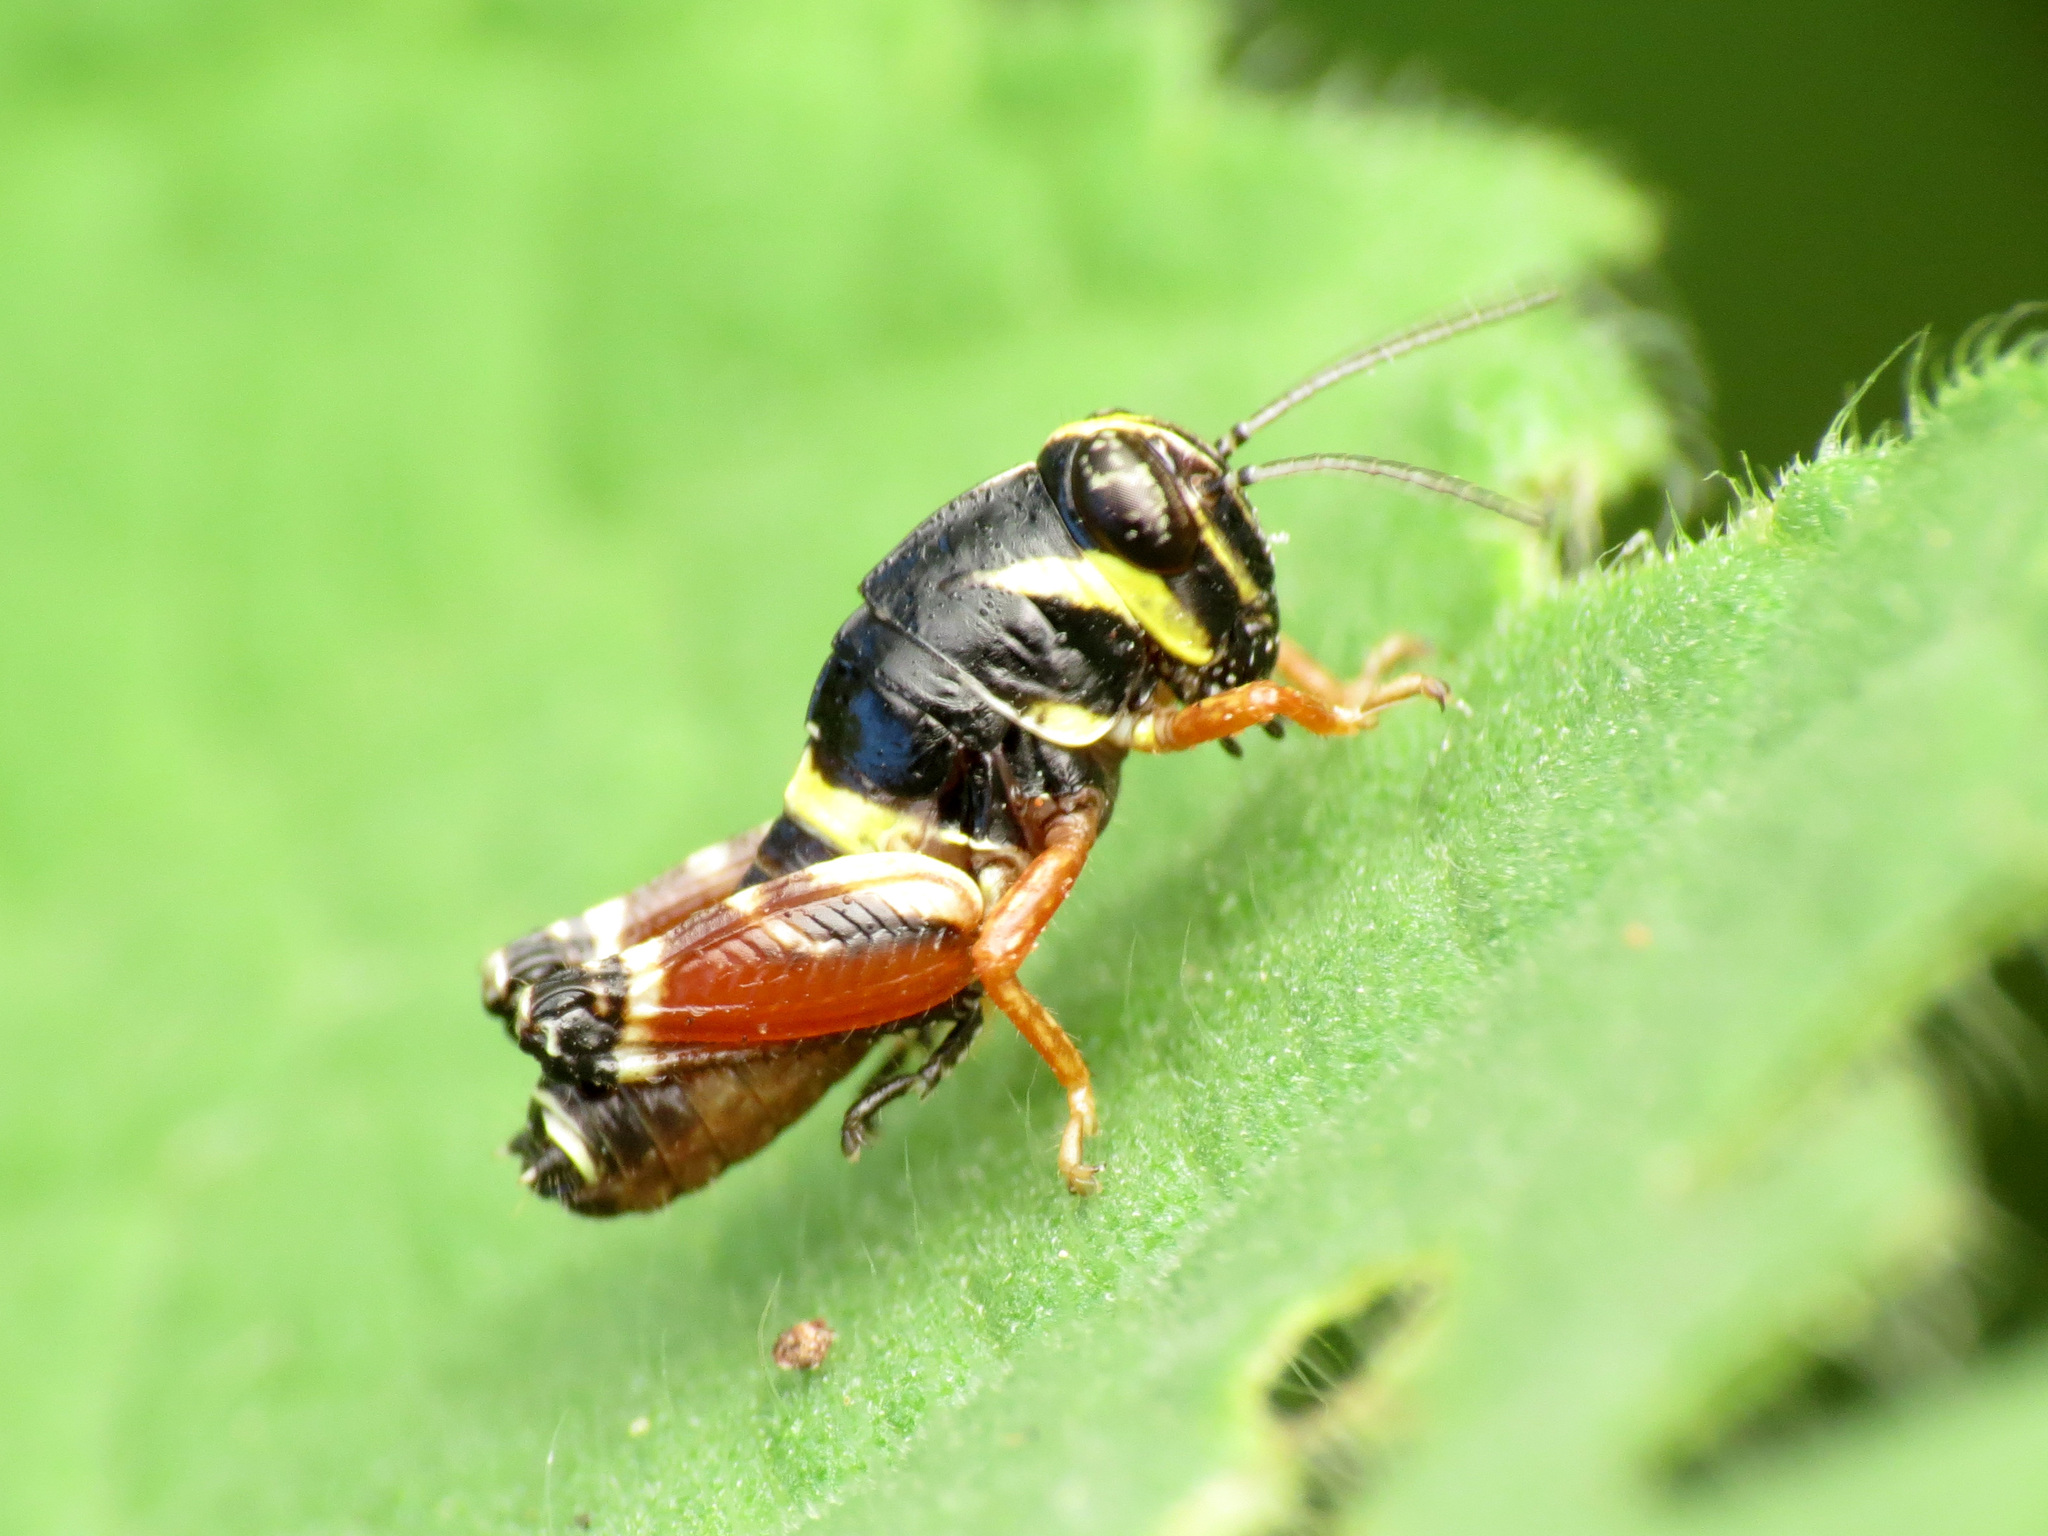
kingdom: Animalia
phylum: Arthropoda
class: Insecta
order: Orthoptera
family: Acrididae
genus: Aidemona
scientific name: Aidemona azteca
